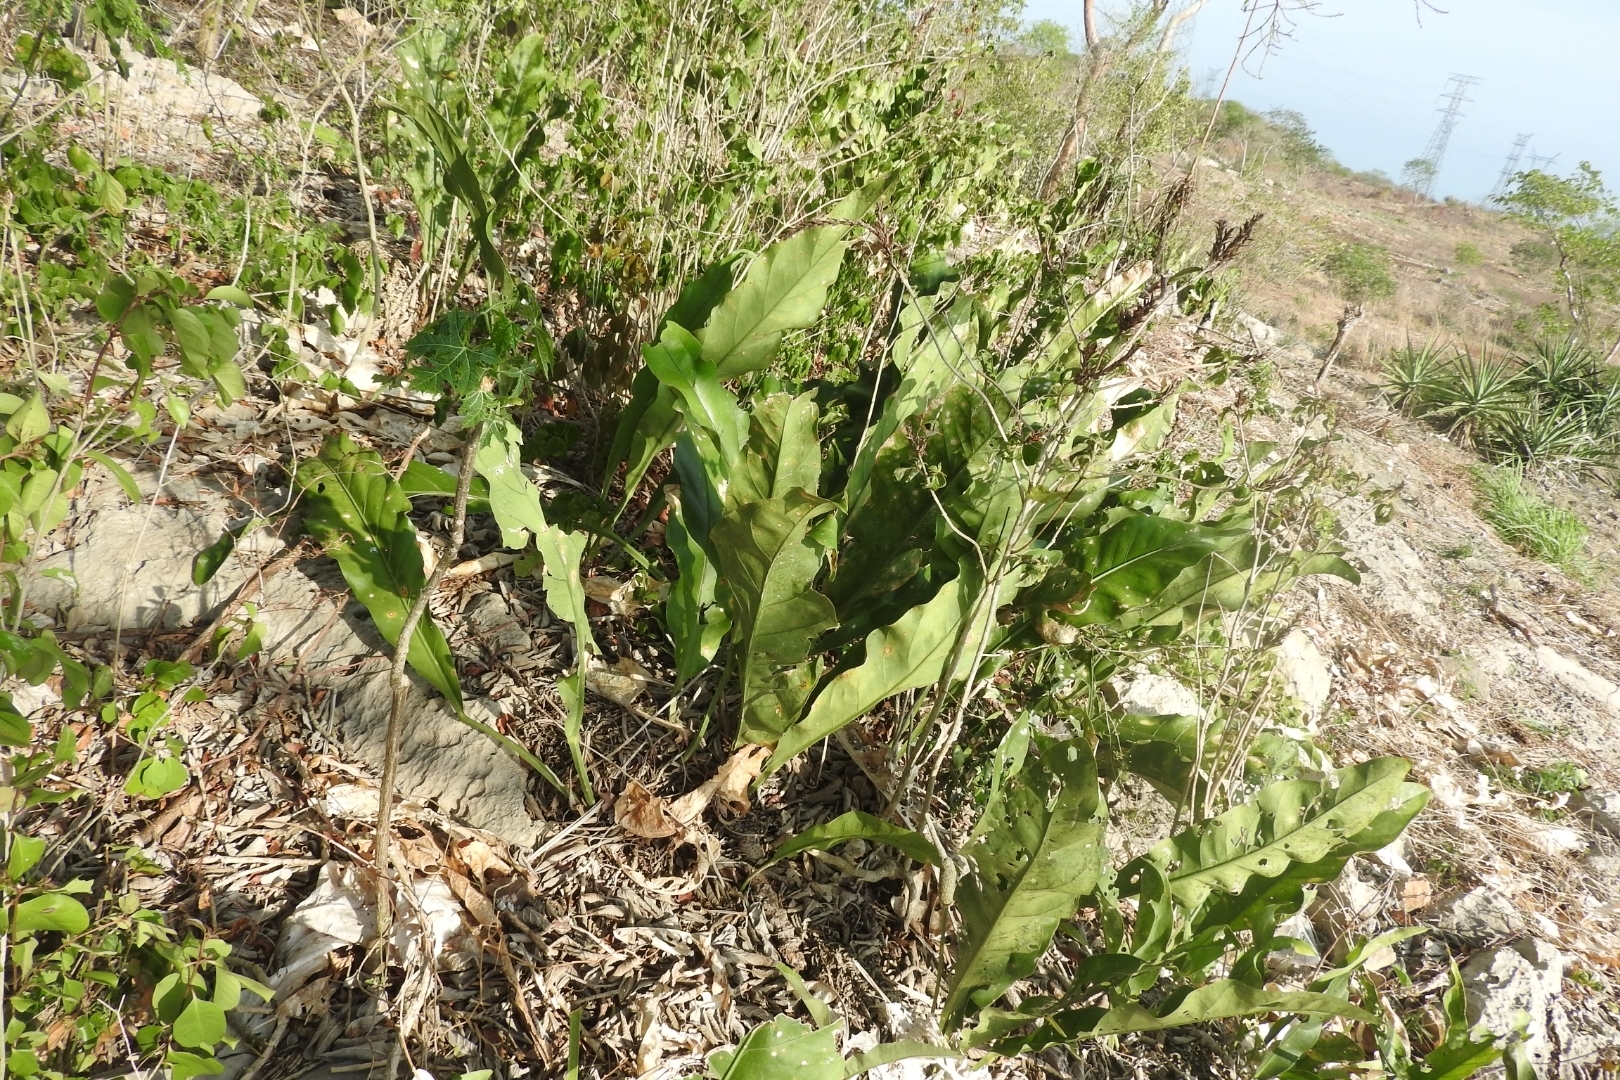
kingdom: Plantae
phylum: Tracheophyta
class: Liliopsida
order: Alismatales
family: Araceae
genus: Anthurium
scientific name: Anthurium schlechtendalii
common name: Laceleaf
